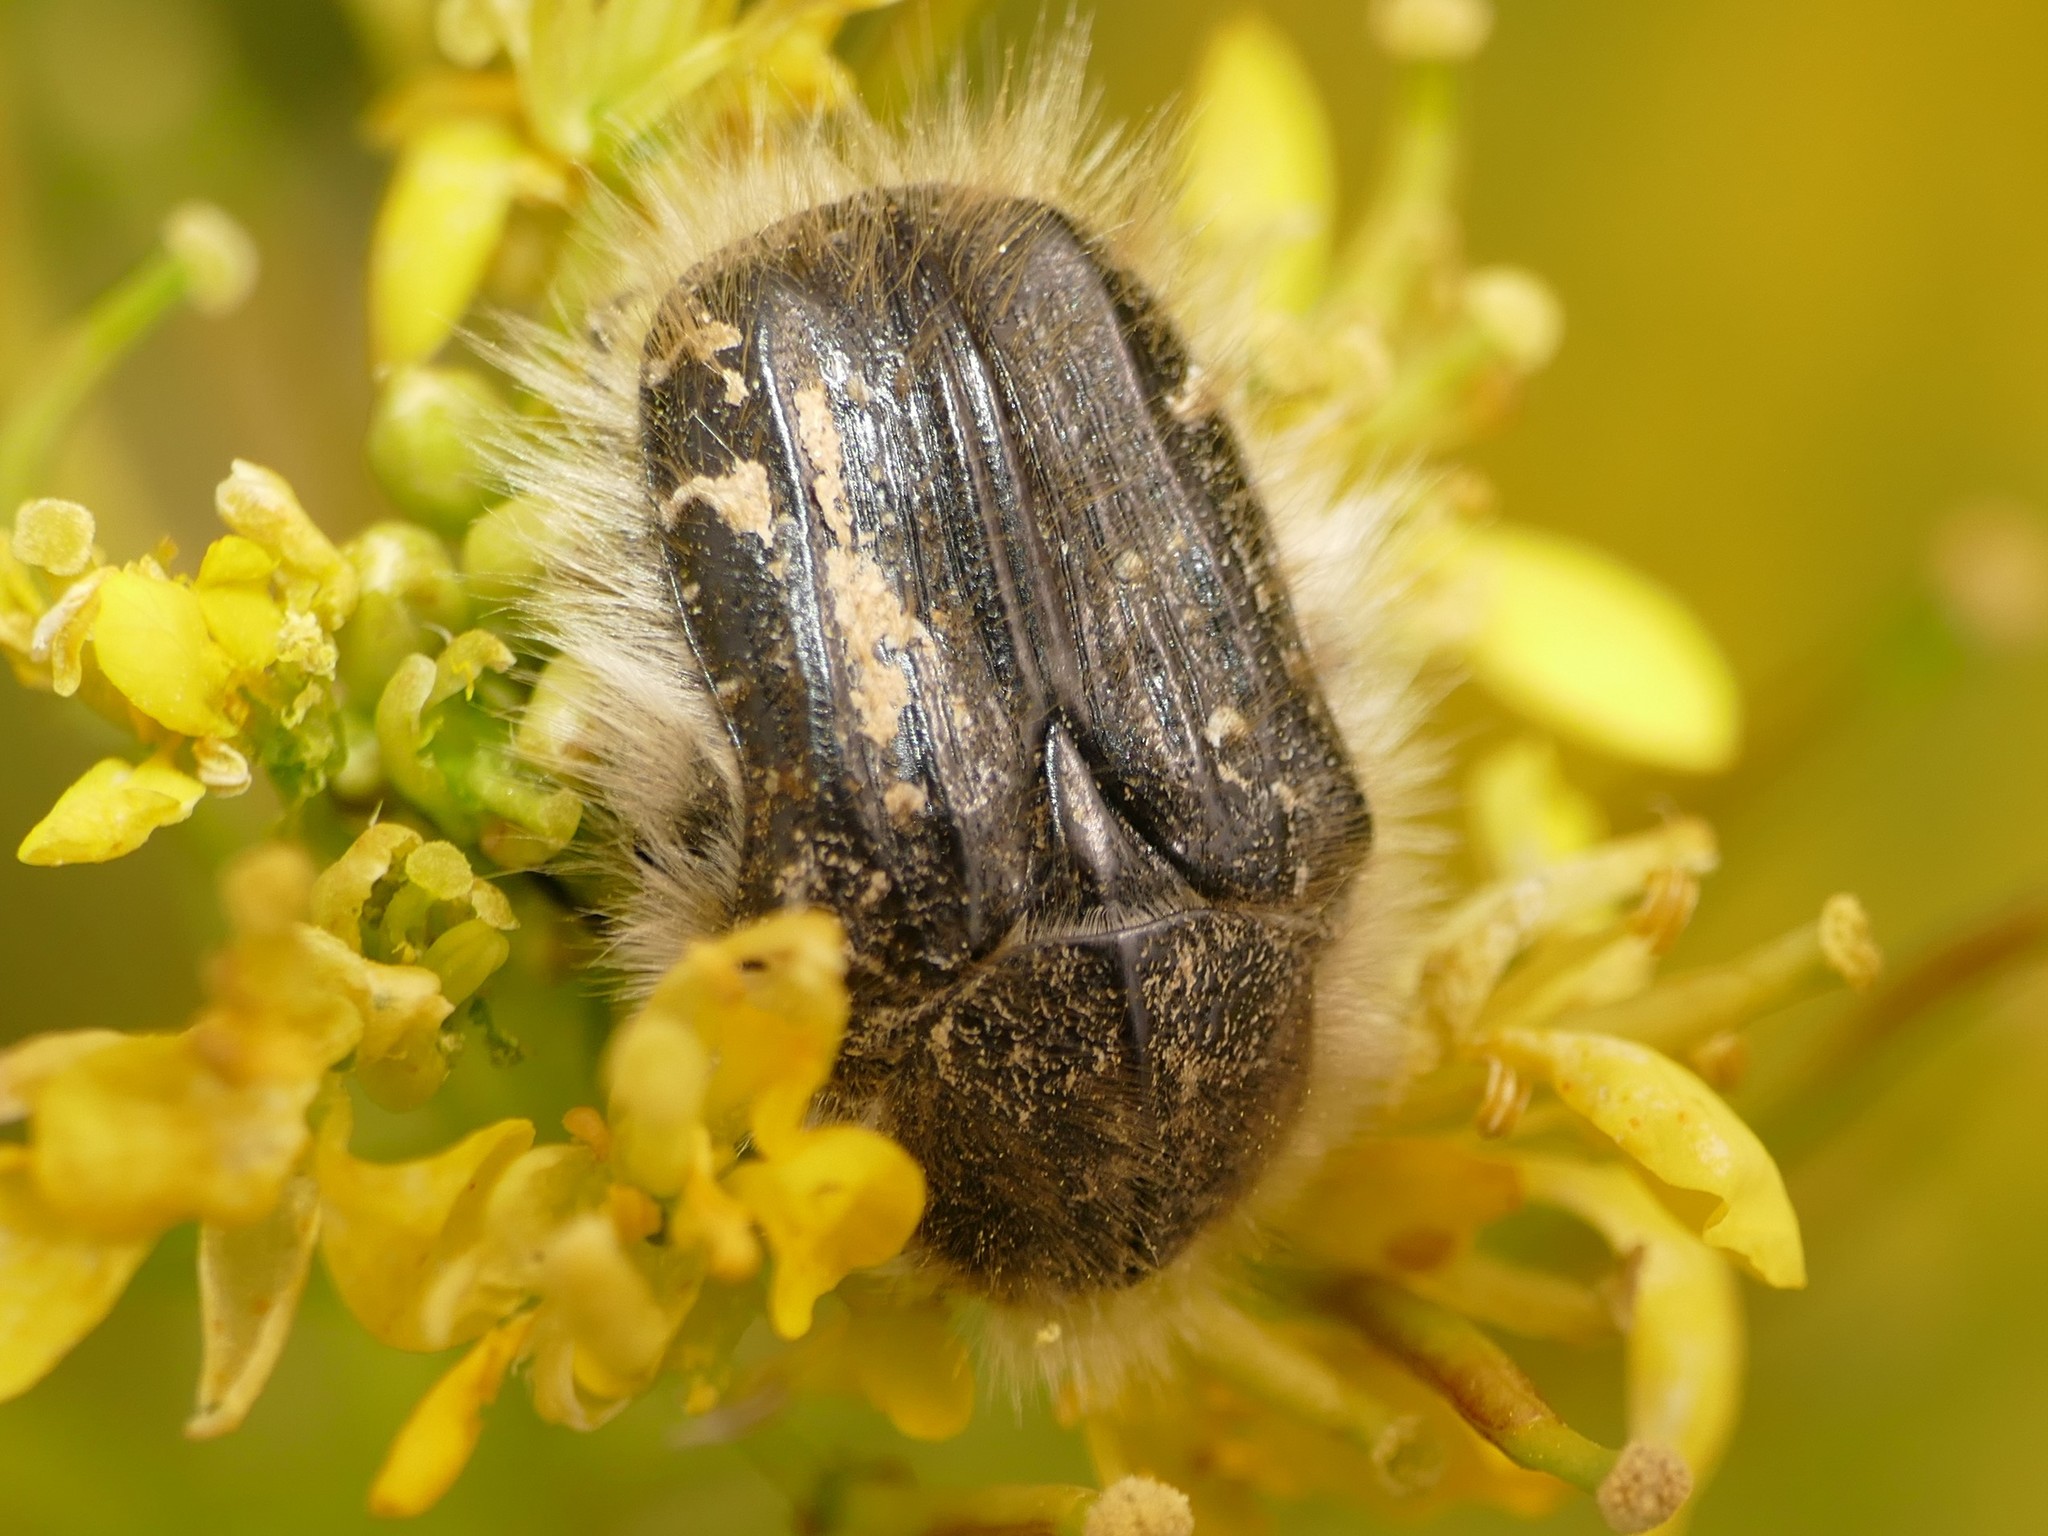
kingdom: Animalia
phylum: Arthropoda
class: Insecta
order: Coleoptera
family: Scarabaeidae
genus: Tropinota
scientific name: Tropinota squalida
